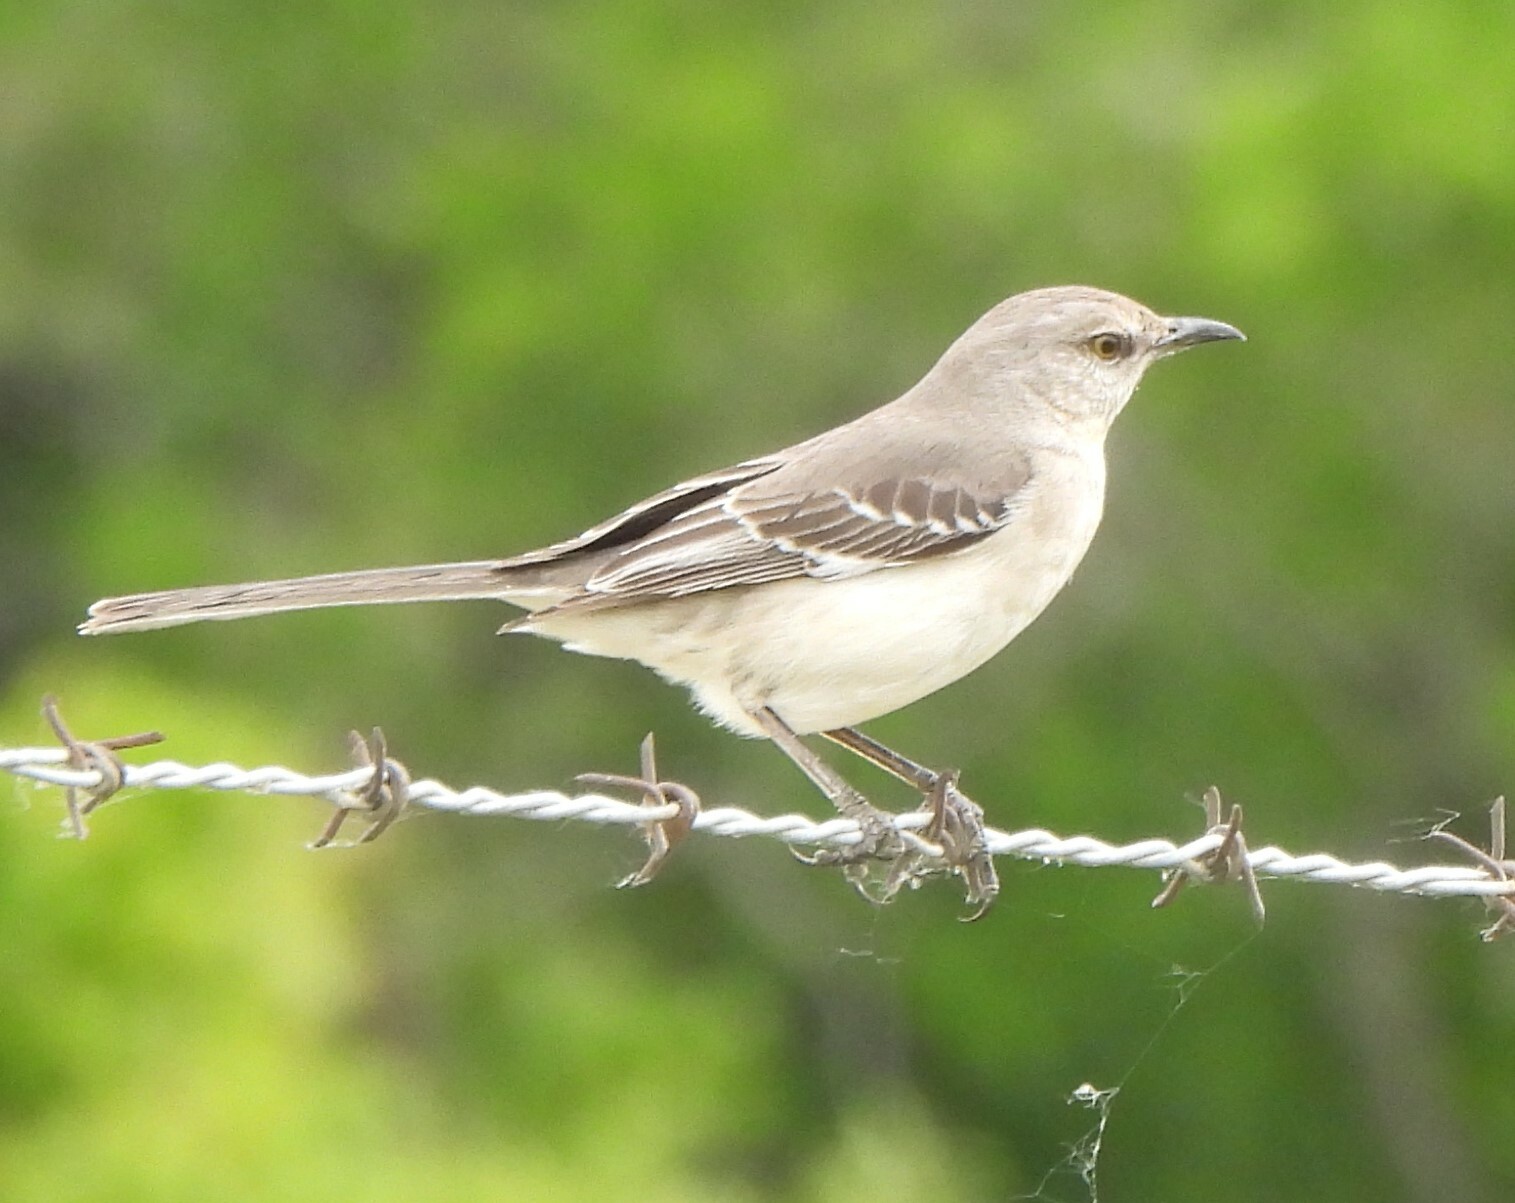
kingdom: Animalia
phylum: Chordata
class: Aves
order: Passeriformes
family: Mimidae
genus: Mimus
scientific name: Mimus polyglottos
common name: Northern mockingbird
